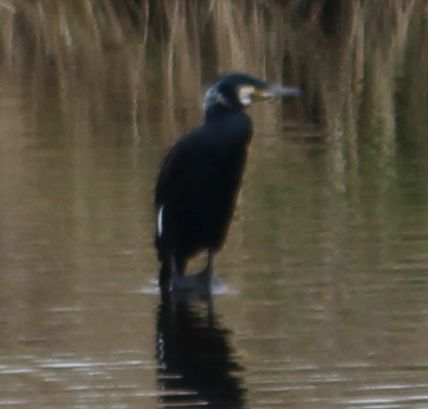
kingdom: Animalia
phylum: Chordata
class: Aves
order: Suliformes
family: Phalacrocoracidae
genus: Phalacrocorax
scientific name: Phalacrocorax carbo
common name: Great cormorant
